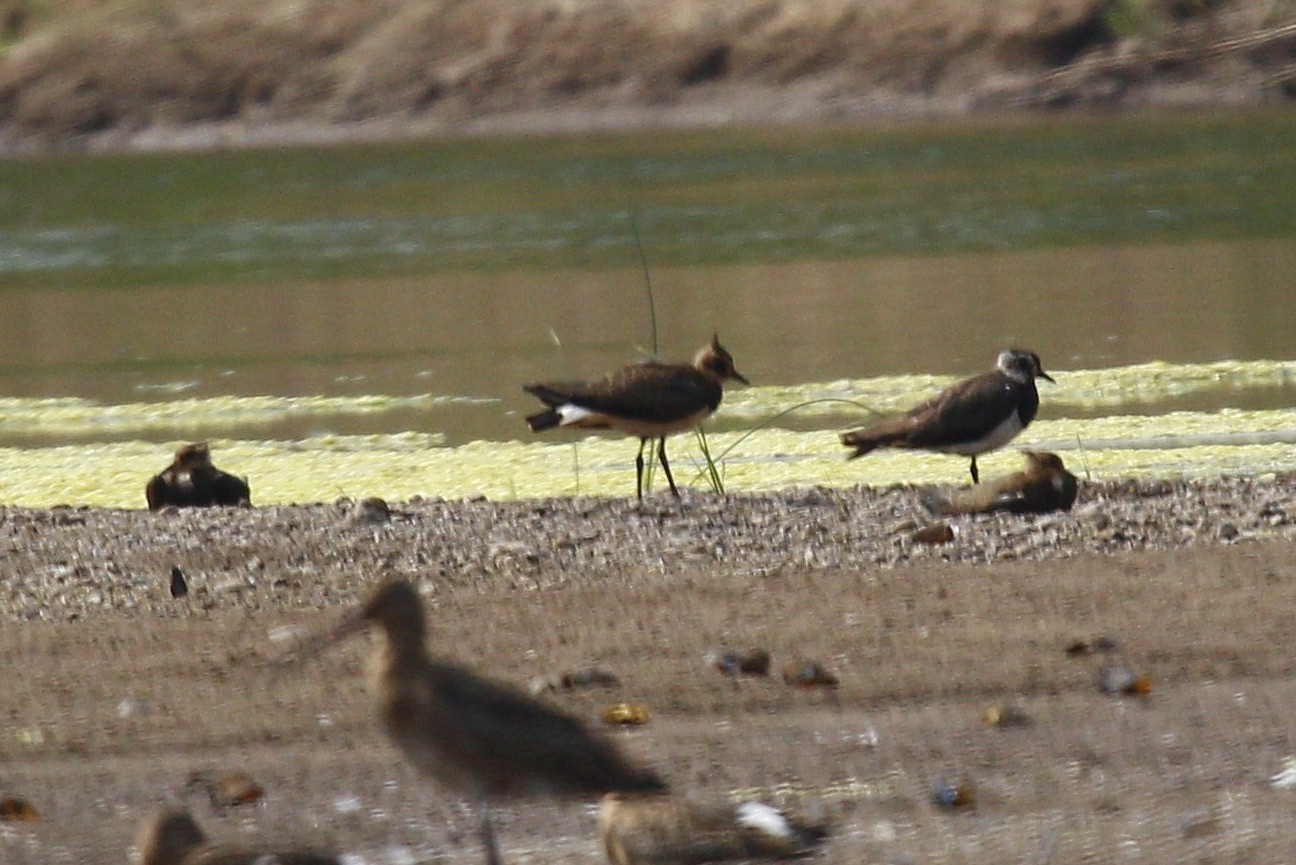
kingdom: Animalia
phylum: Chordata
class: Aves
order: Charadriiformes
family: Charadriidae
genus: Vanellus
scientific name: Vanellus vanellus
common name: Northern lapwing
